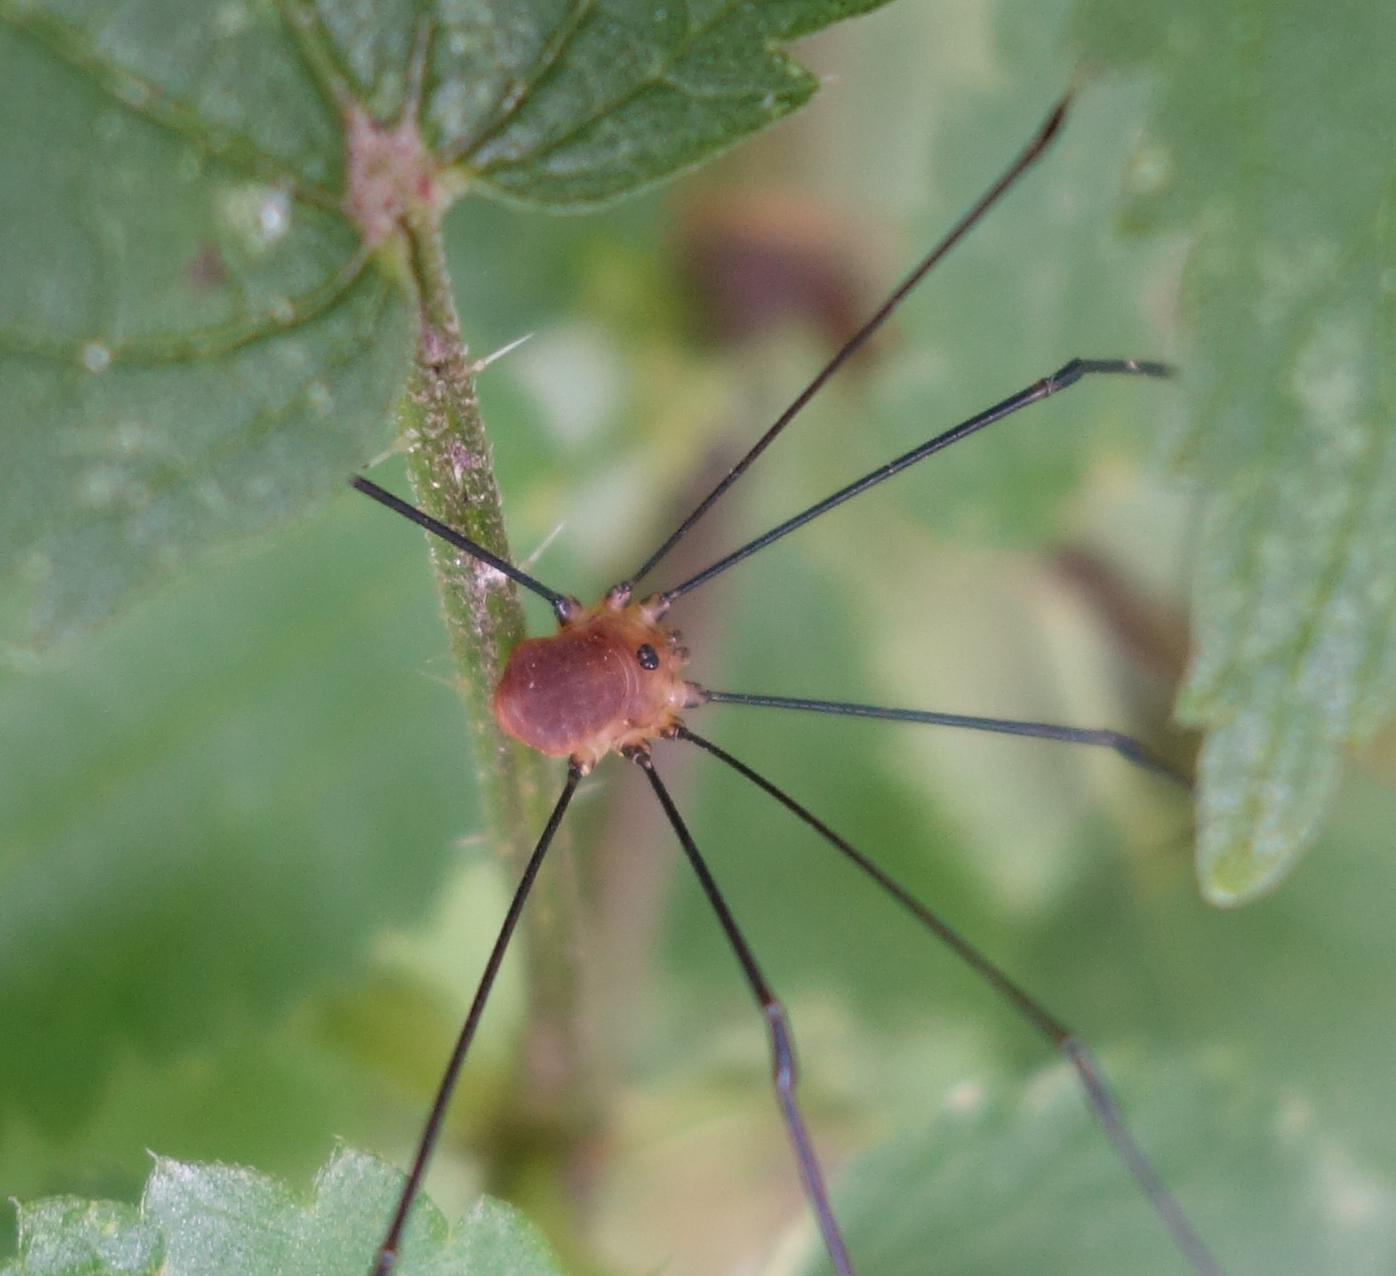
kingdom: Animalia
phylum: Arthropoda
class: Arachnida
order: Opiliones
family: Sclerosomatidae
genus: Leiobunum
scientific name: Leiobunum rotundum
